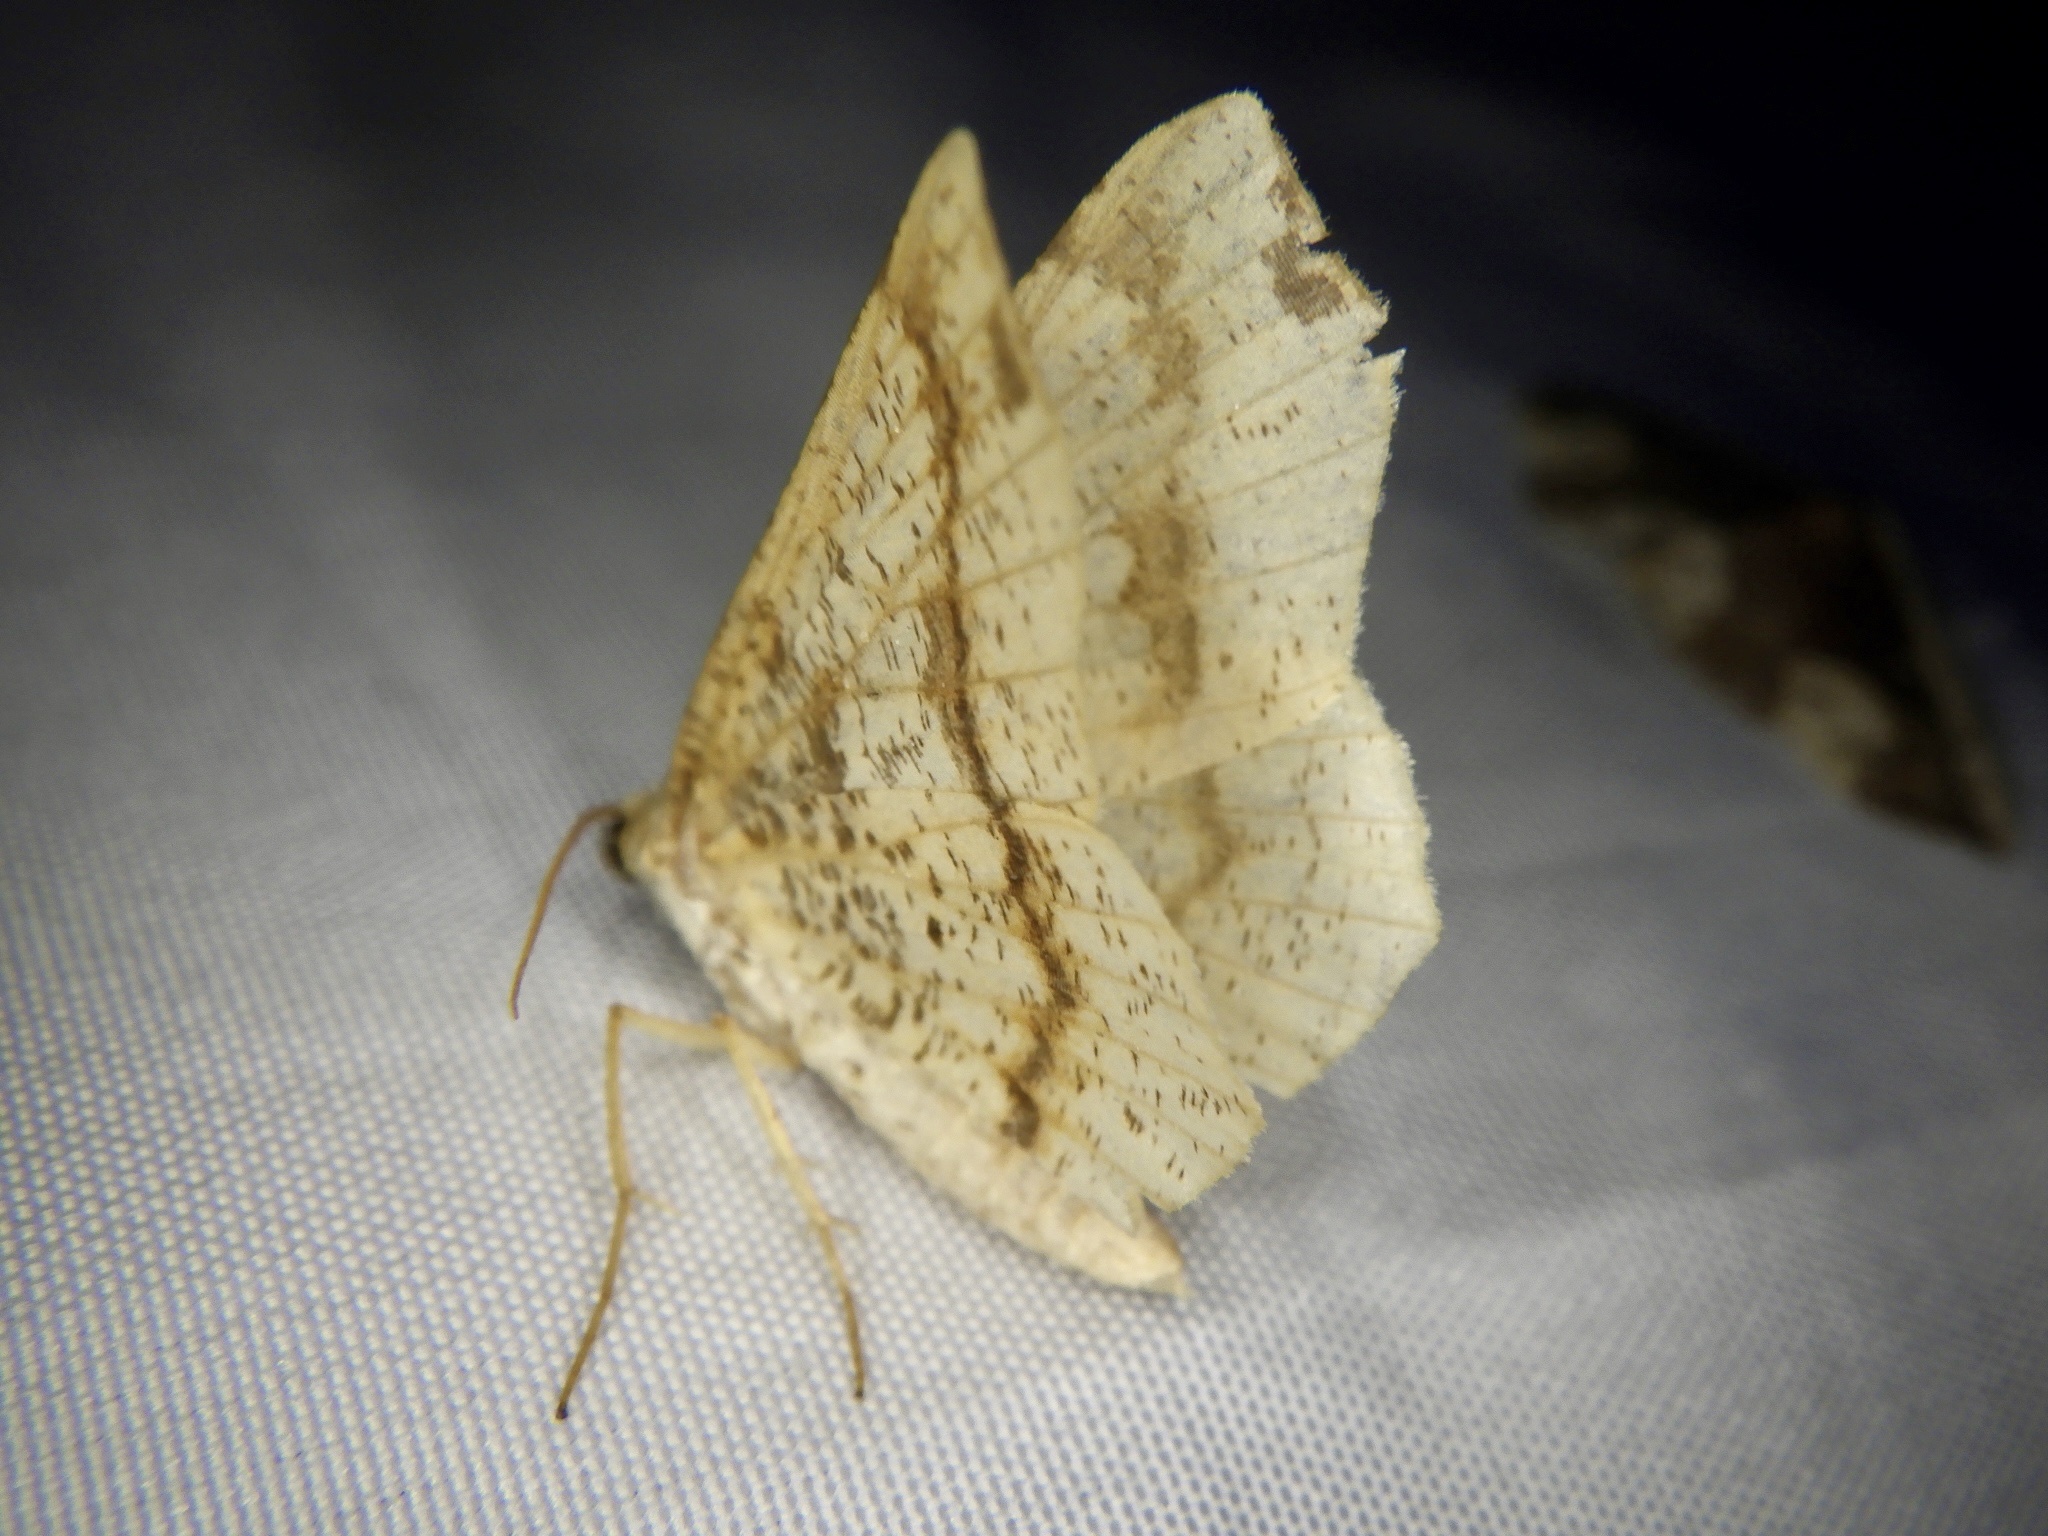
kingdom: Animalia
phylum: Arthropoda
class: Insecta
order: Lepidoptera
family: Geometridae
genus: Pareclipsis
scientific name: Pareclipsis gracilis
